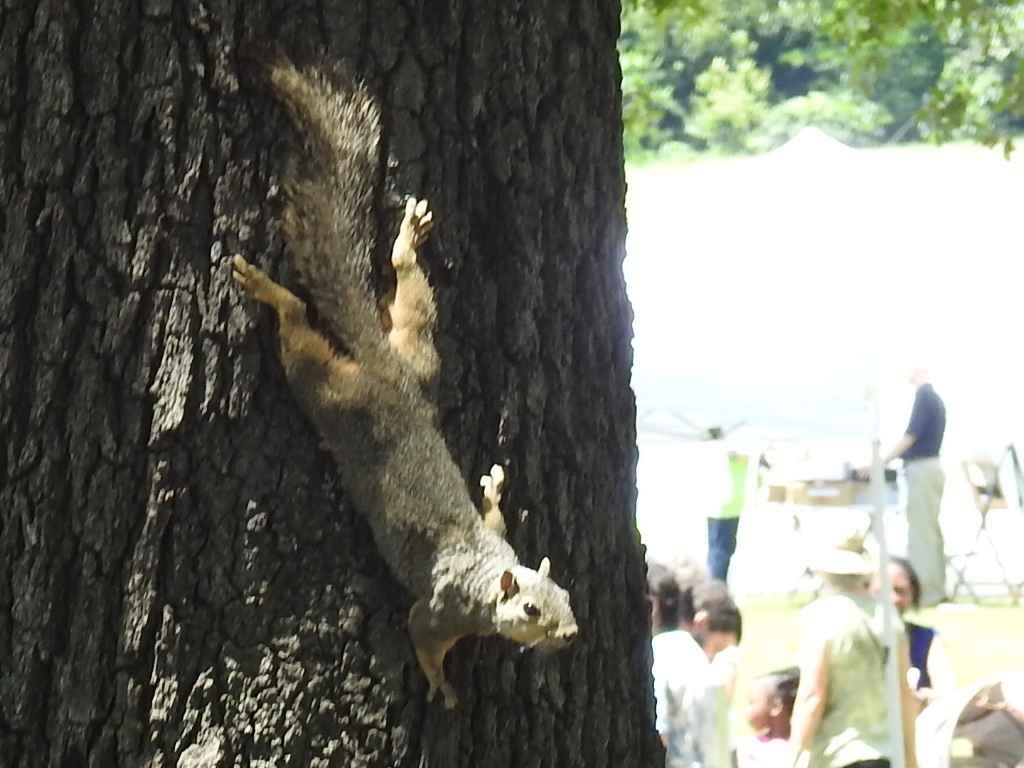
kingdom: Animalia
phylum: Chordata
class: Mammalia
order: Rodentia
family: Sciuridae
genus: Sciurus
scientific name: Sciurus niger
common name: Fox squirrel
